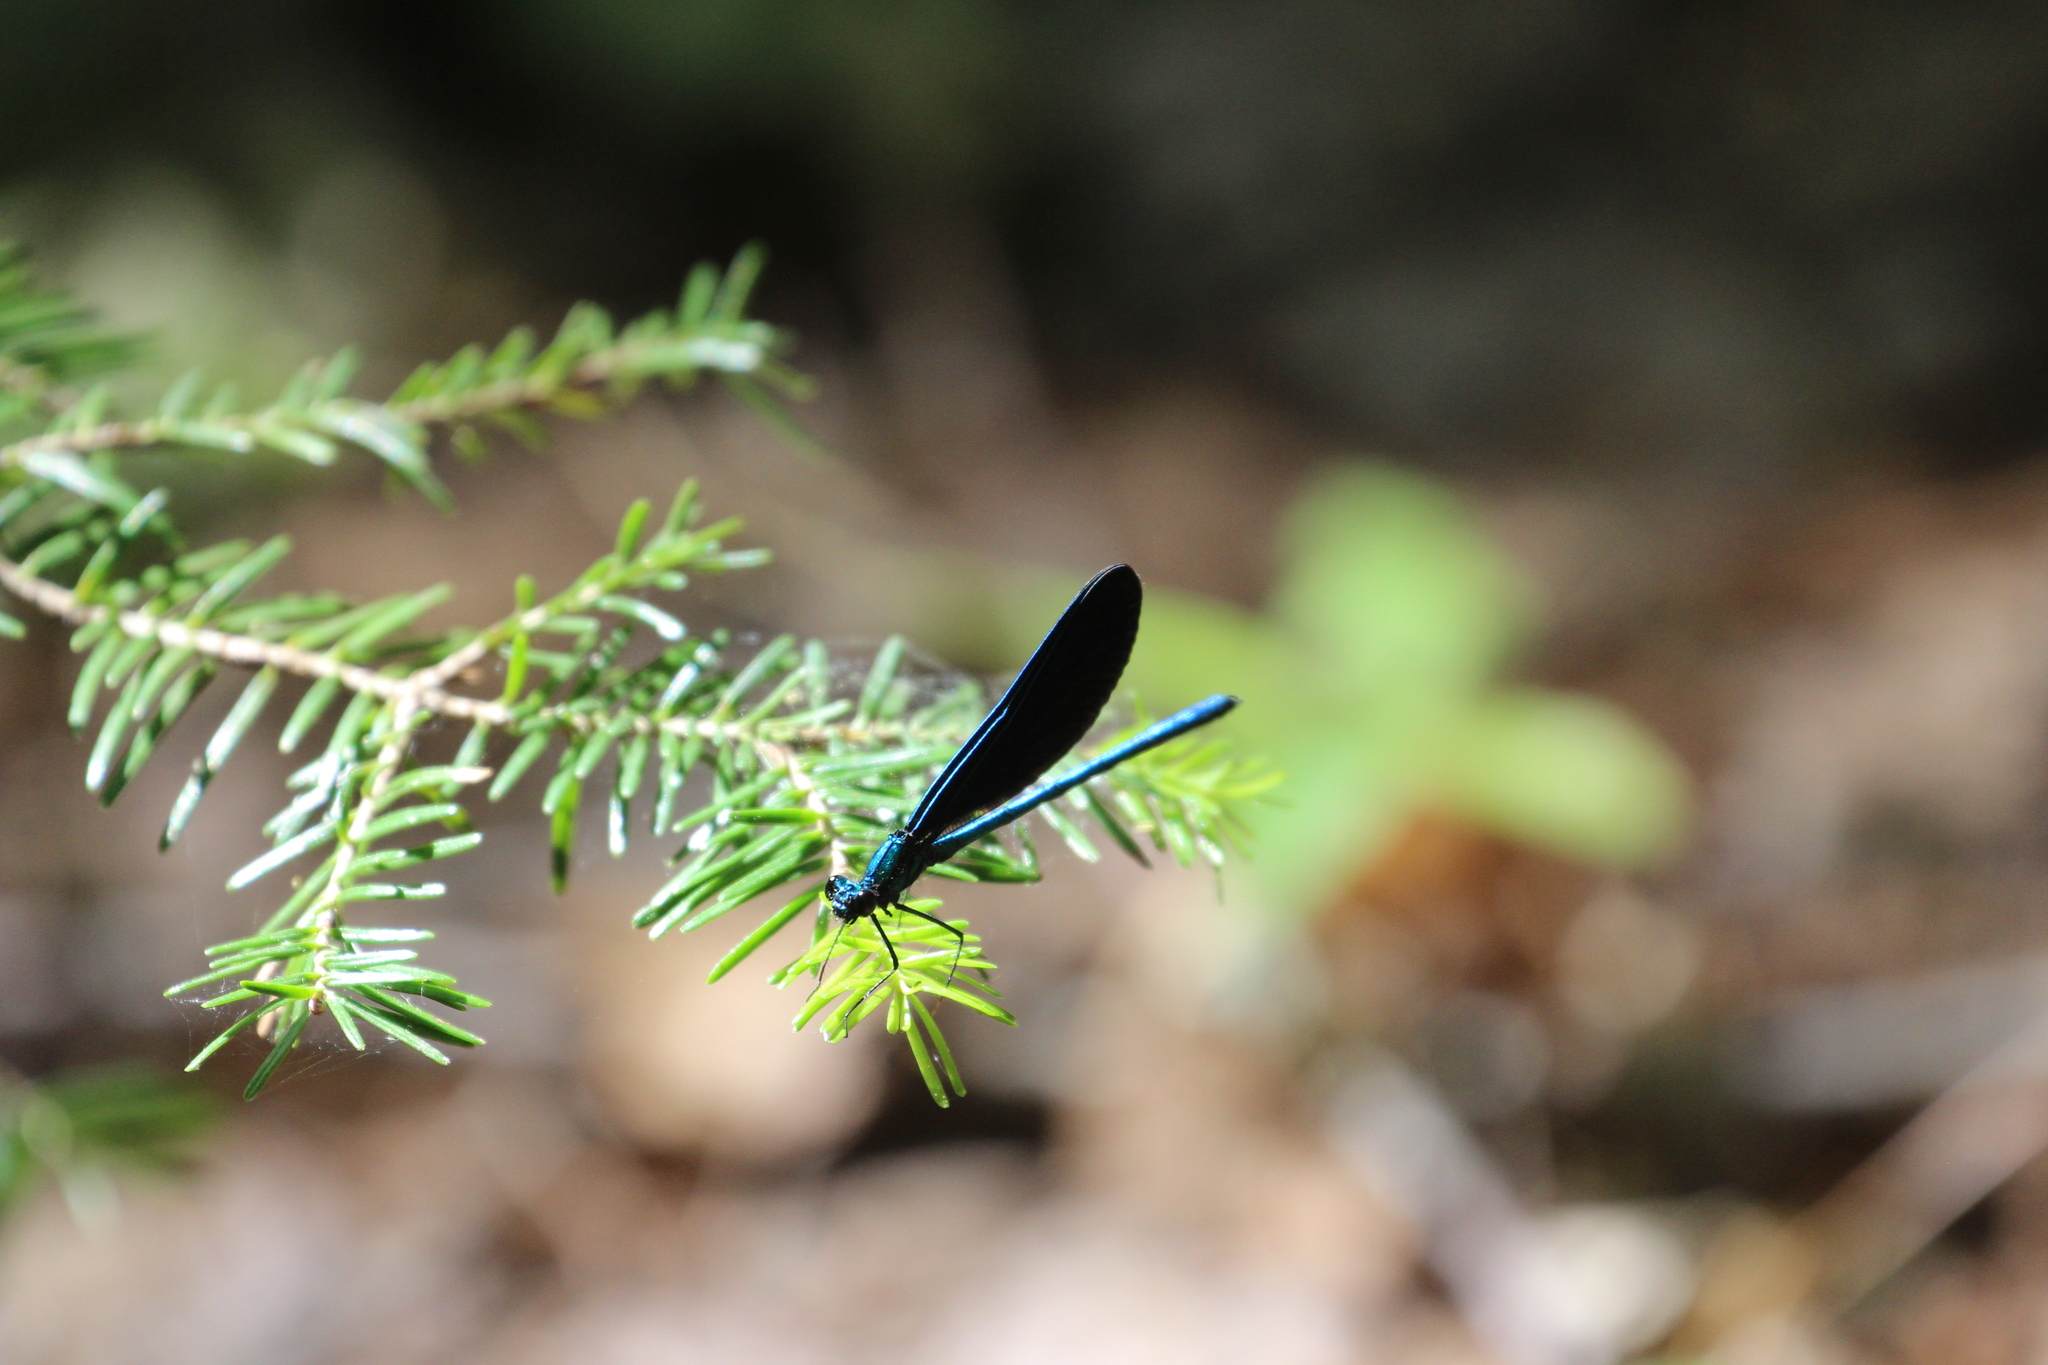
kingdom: Animalia
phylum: Arthropoda
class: Insecta
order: Odonata
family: Calopterygidae
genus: Calopteryx
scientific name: Calopteryx maculata
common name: Ebony jewelwing
